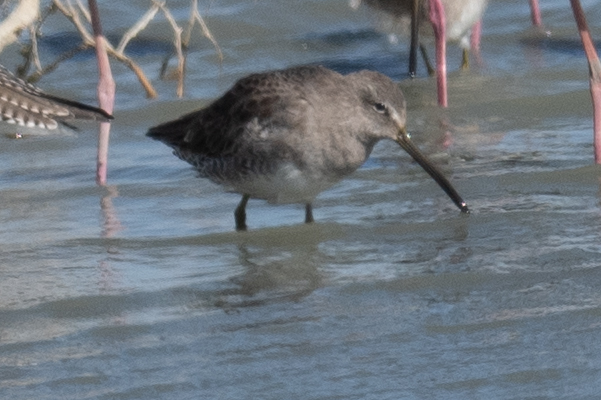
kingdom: Animalia
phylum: Chordata
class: Aves
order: Charadriiformes
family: Scolopacidae
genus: Limnodromus
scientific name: Limnodromus scolopaceus
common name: Long-billed dowitcher
